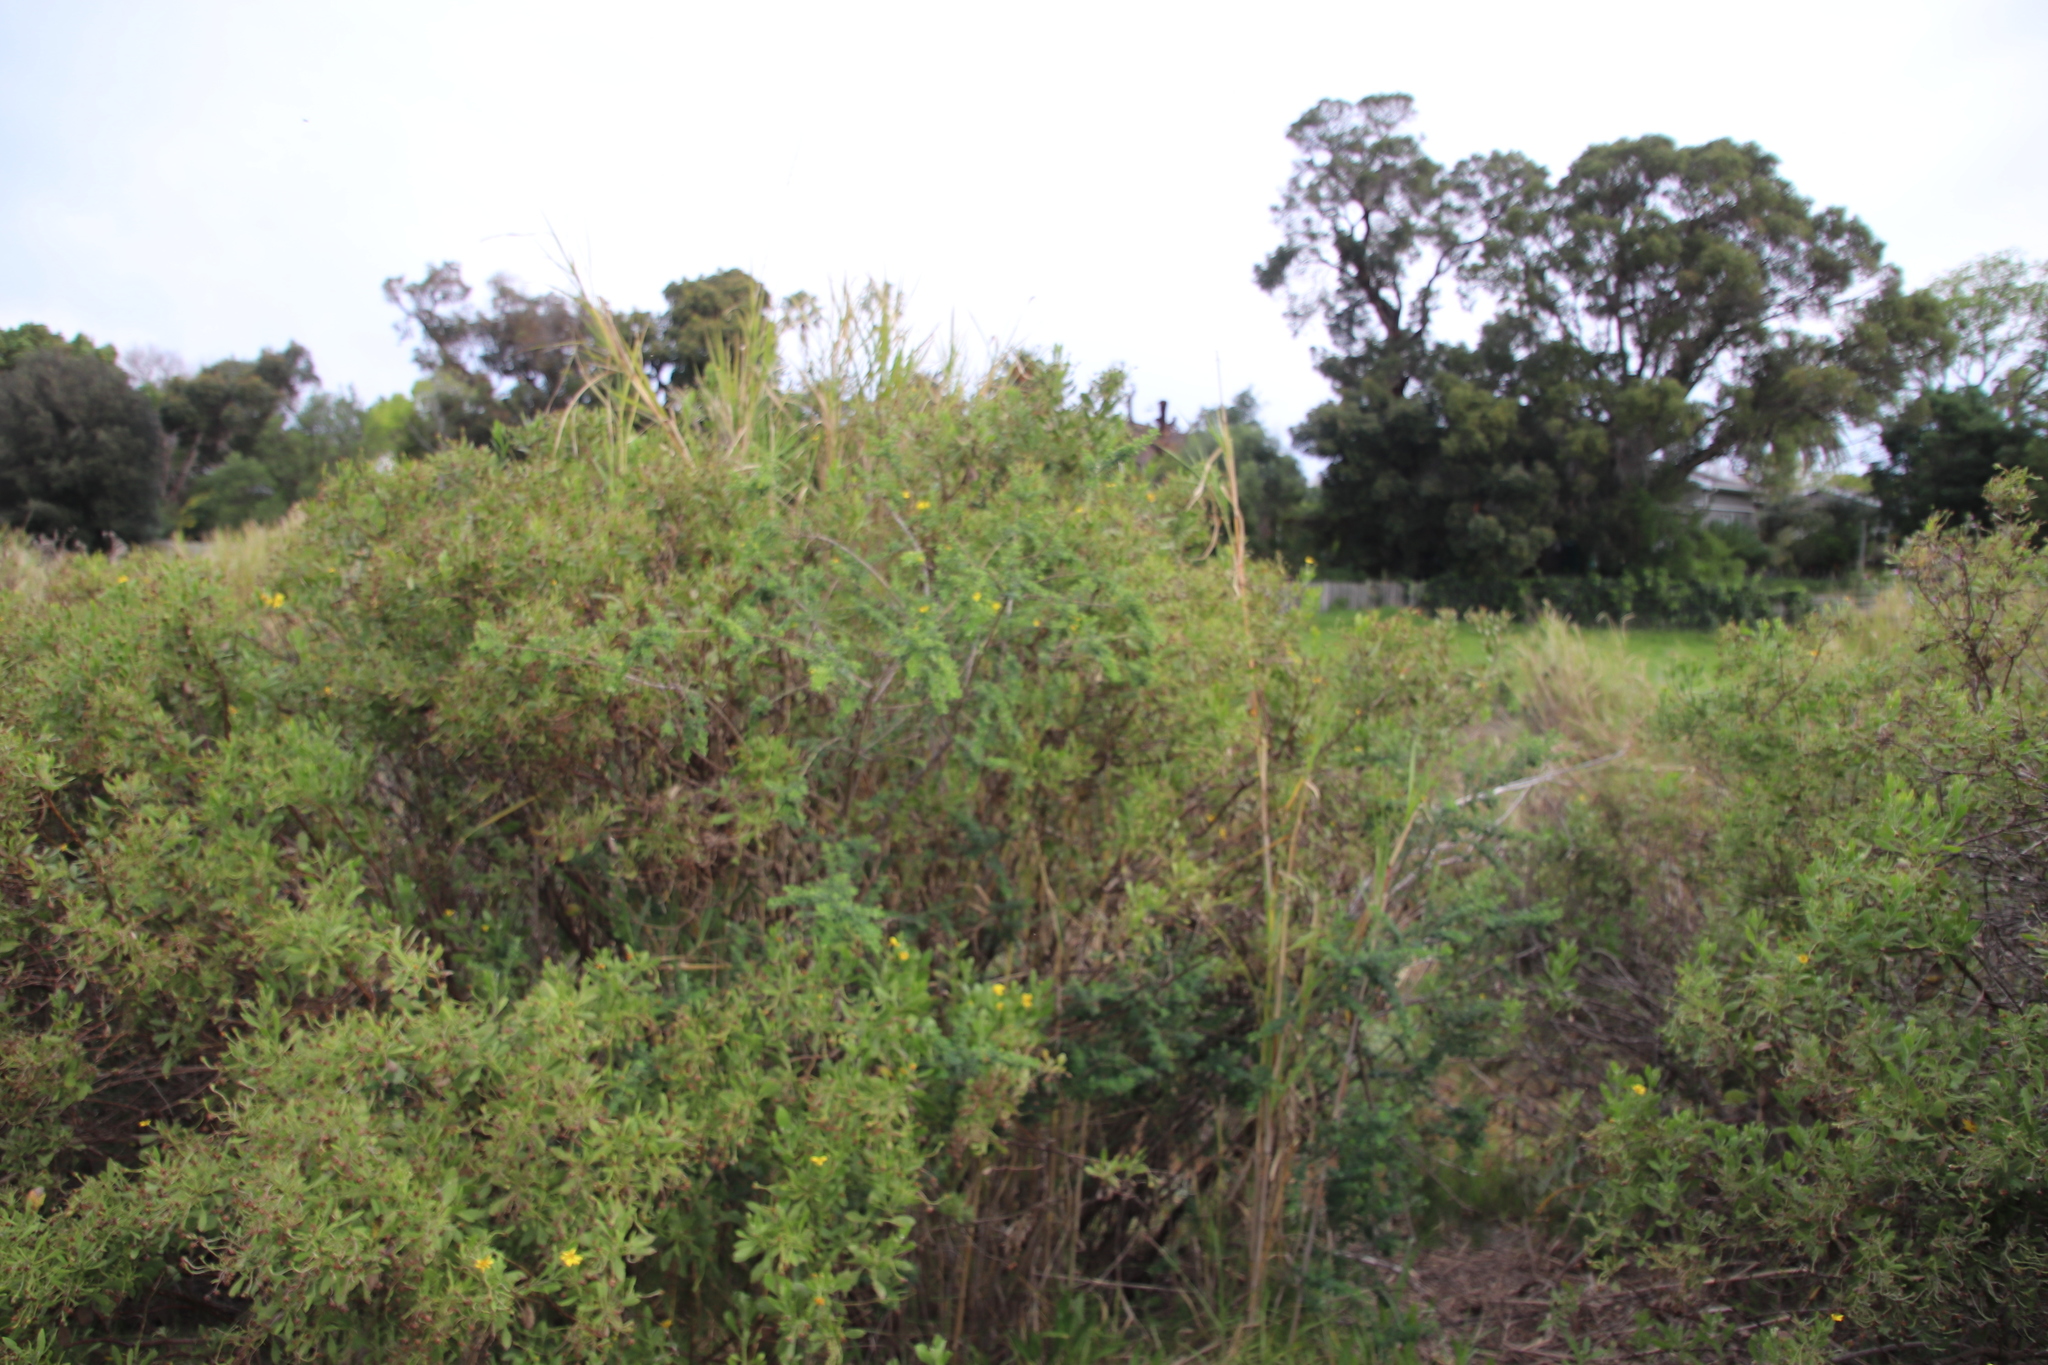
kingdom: Plantae
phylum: Tracheophyta
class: Magnoliopsida
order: Fabales
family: Fabaceae
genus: Genista
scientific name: Genista monspessulana
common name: Montpellier broom
